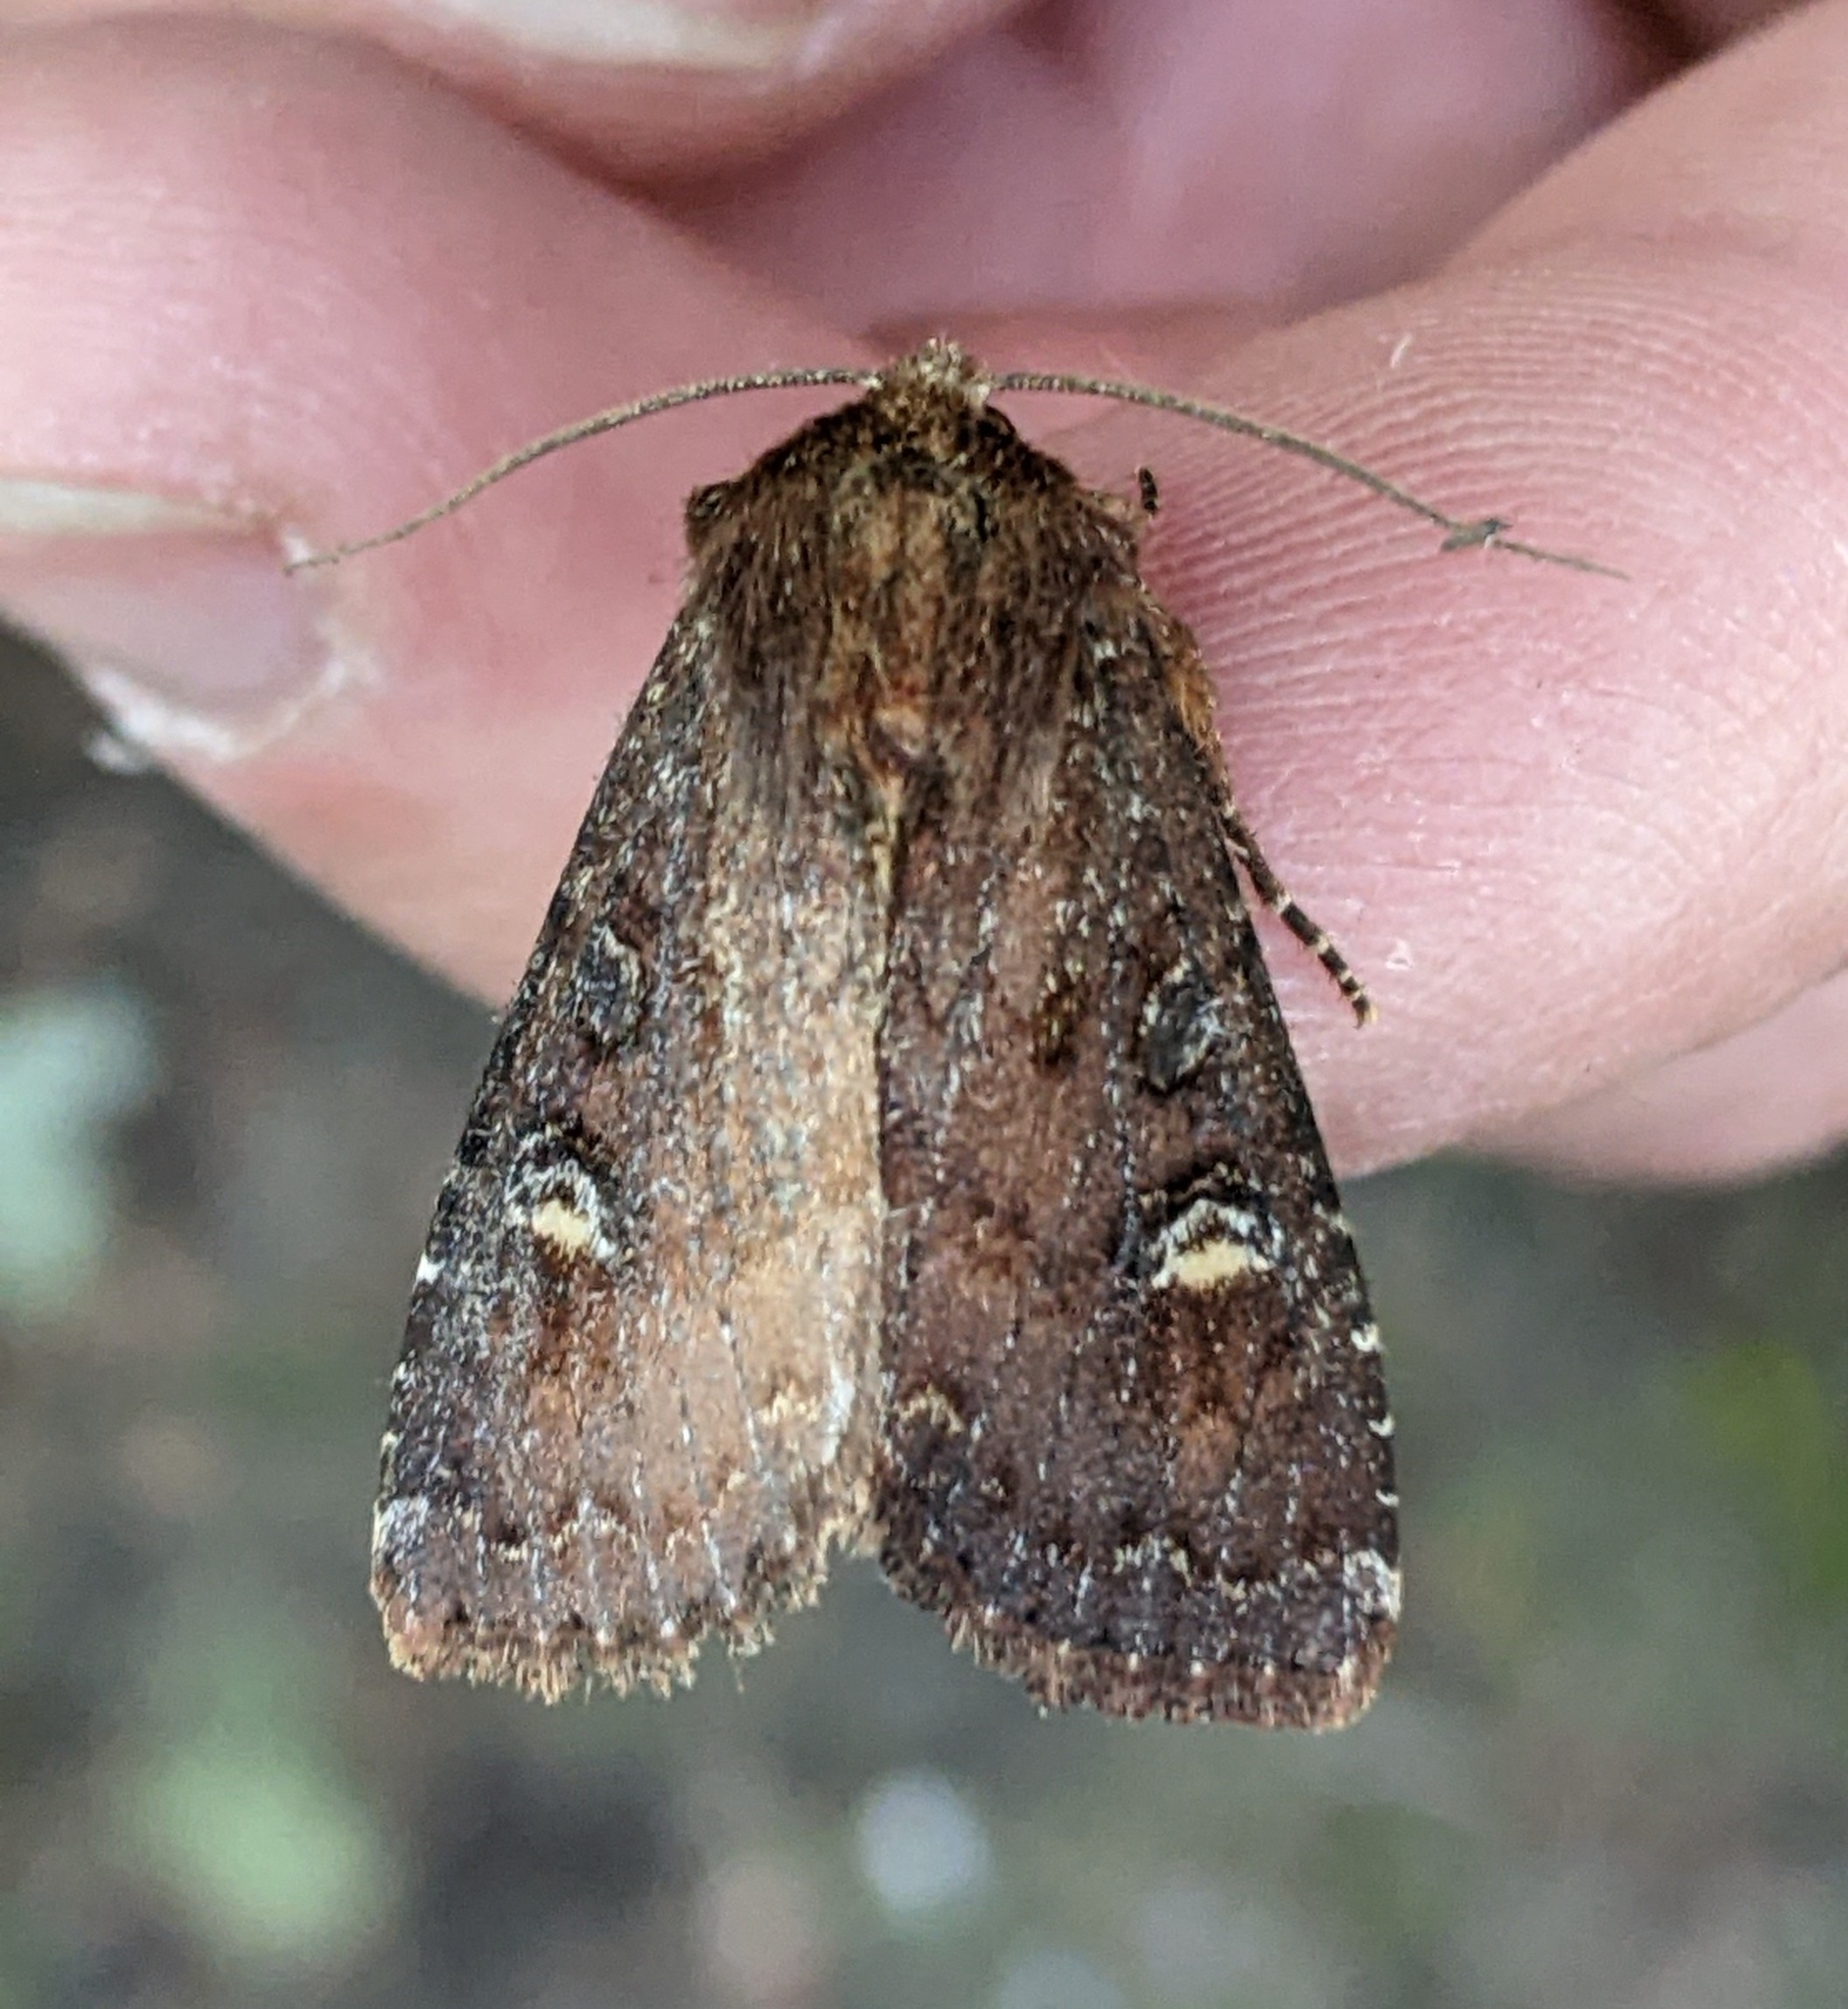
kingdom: Animalia
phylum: Arthropoda
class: Insecta
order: Lepidoptera
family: Noctuidae
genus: Apamea
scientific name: Apamea cogitata
